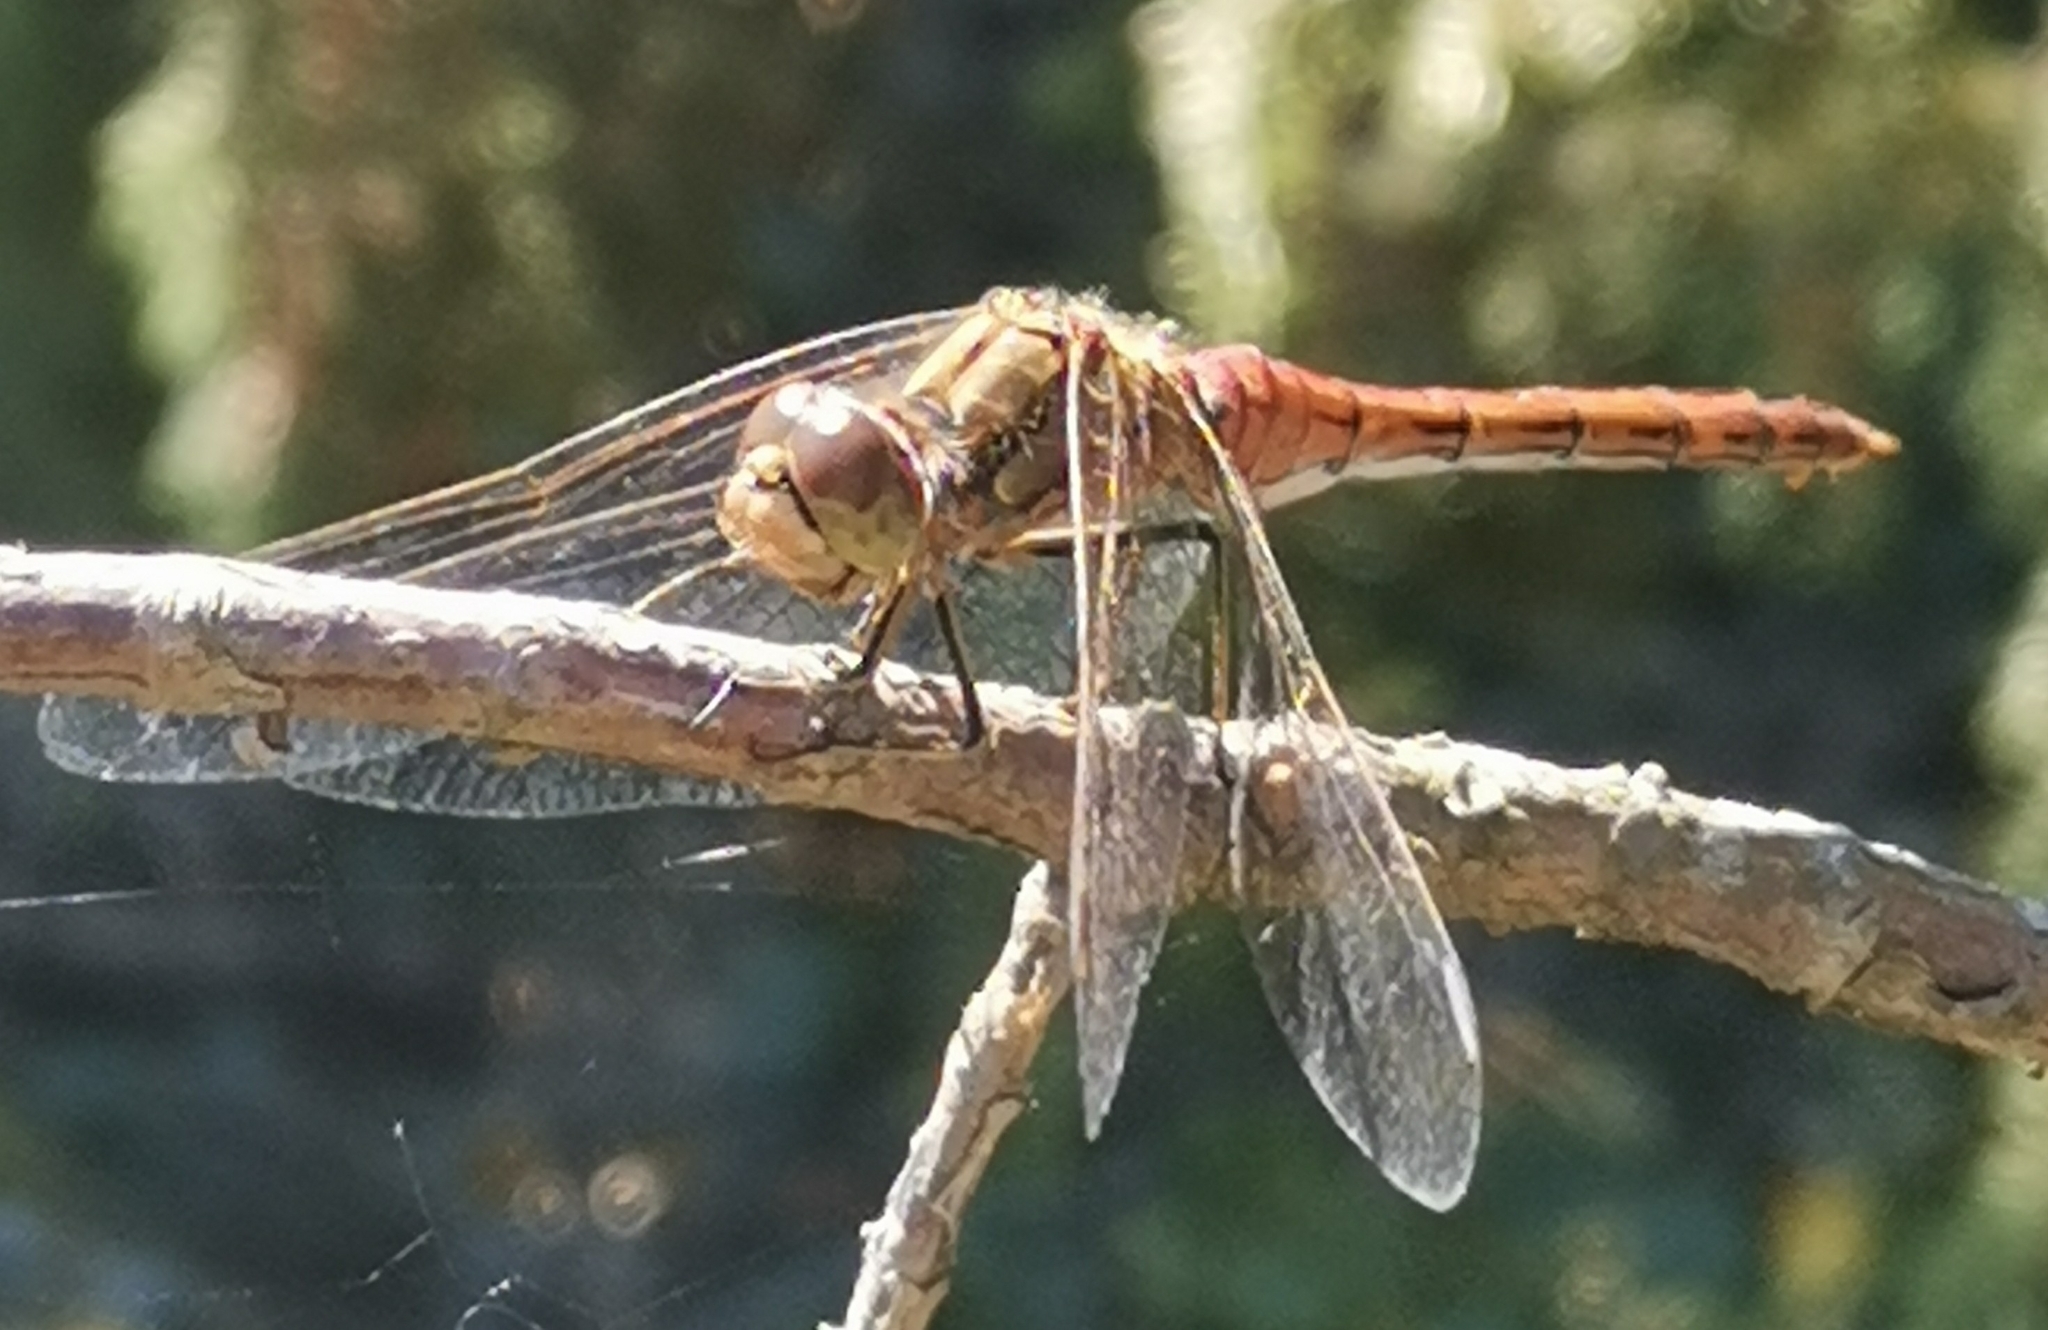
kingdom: Animalia
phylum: Arthropoda
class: Insecta
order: Odonata
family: Libellulidae
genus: Sympetrum
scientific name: Sympetrum vulgatum
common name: Vagrant darter
